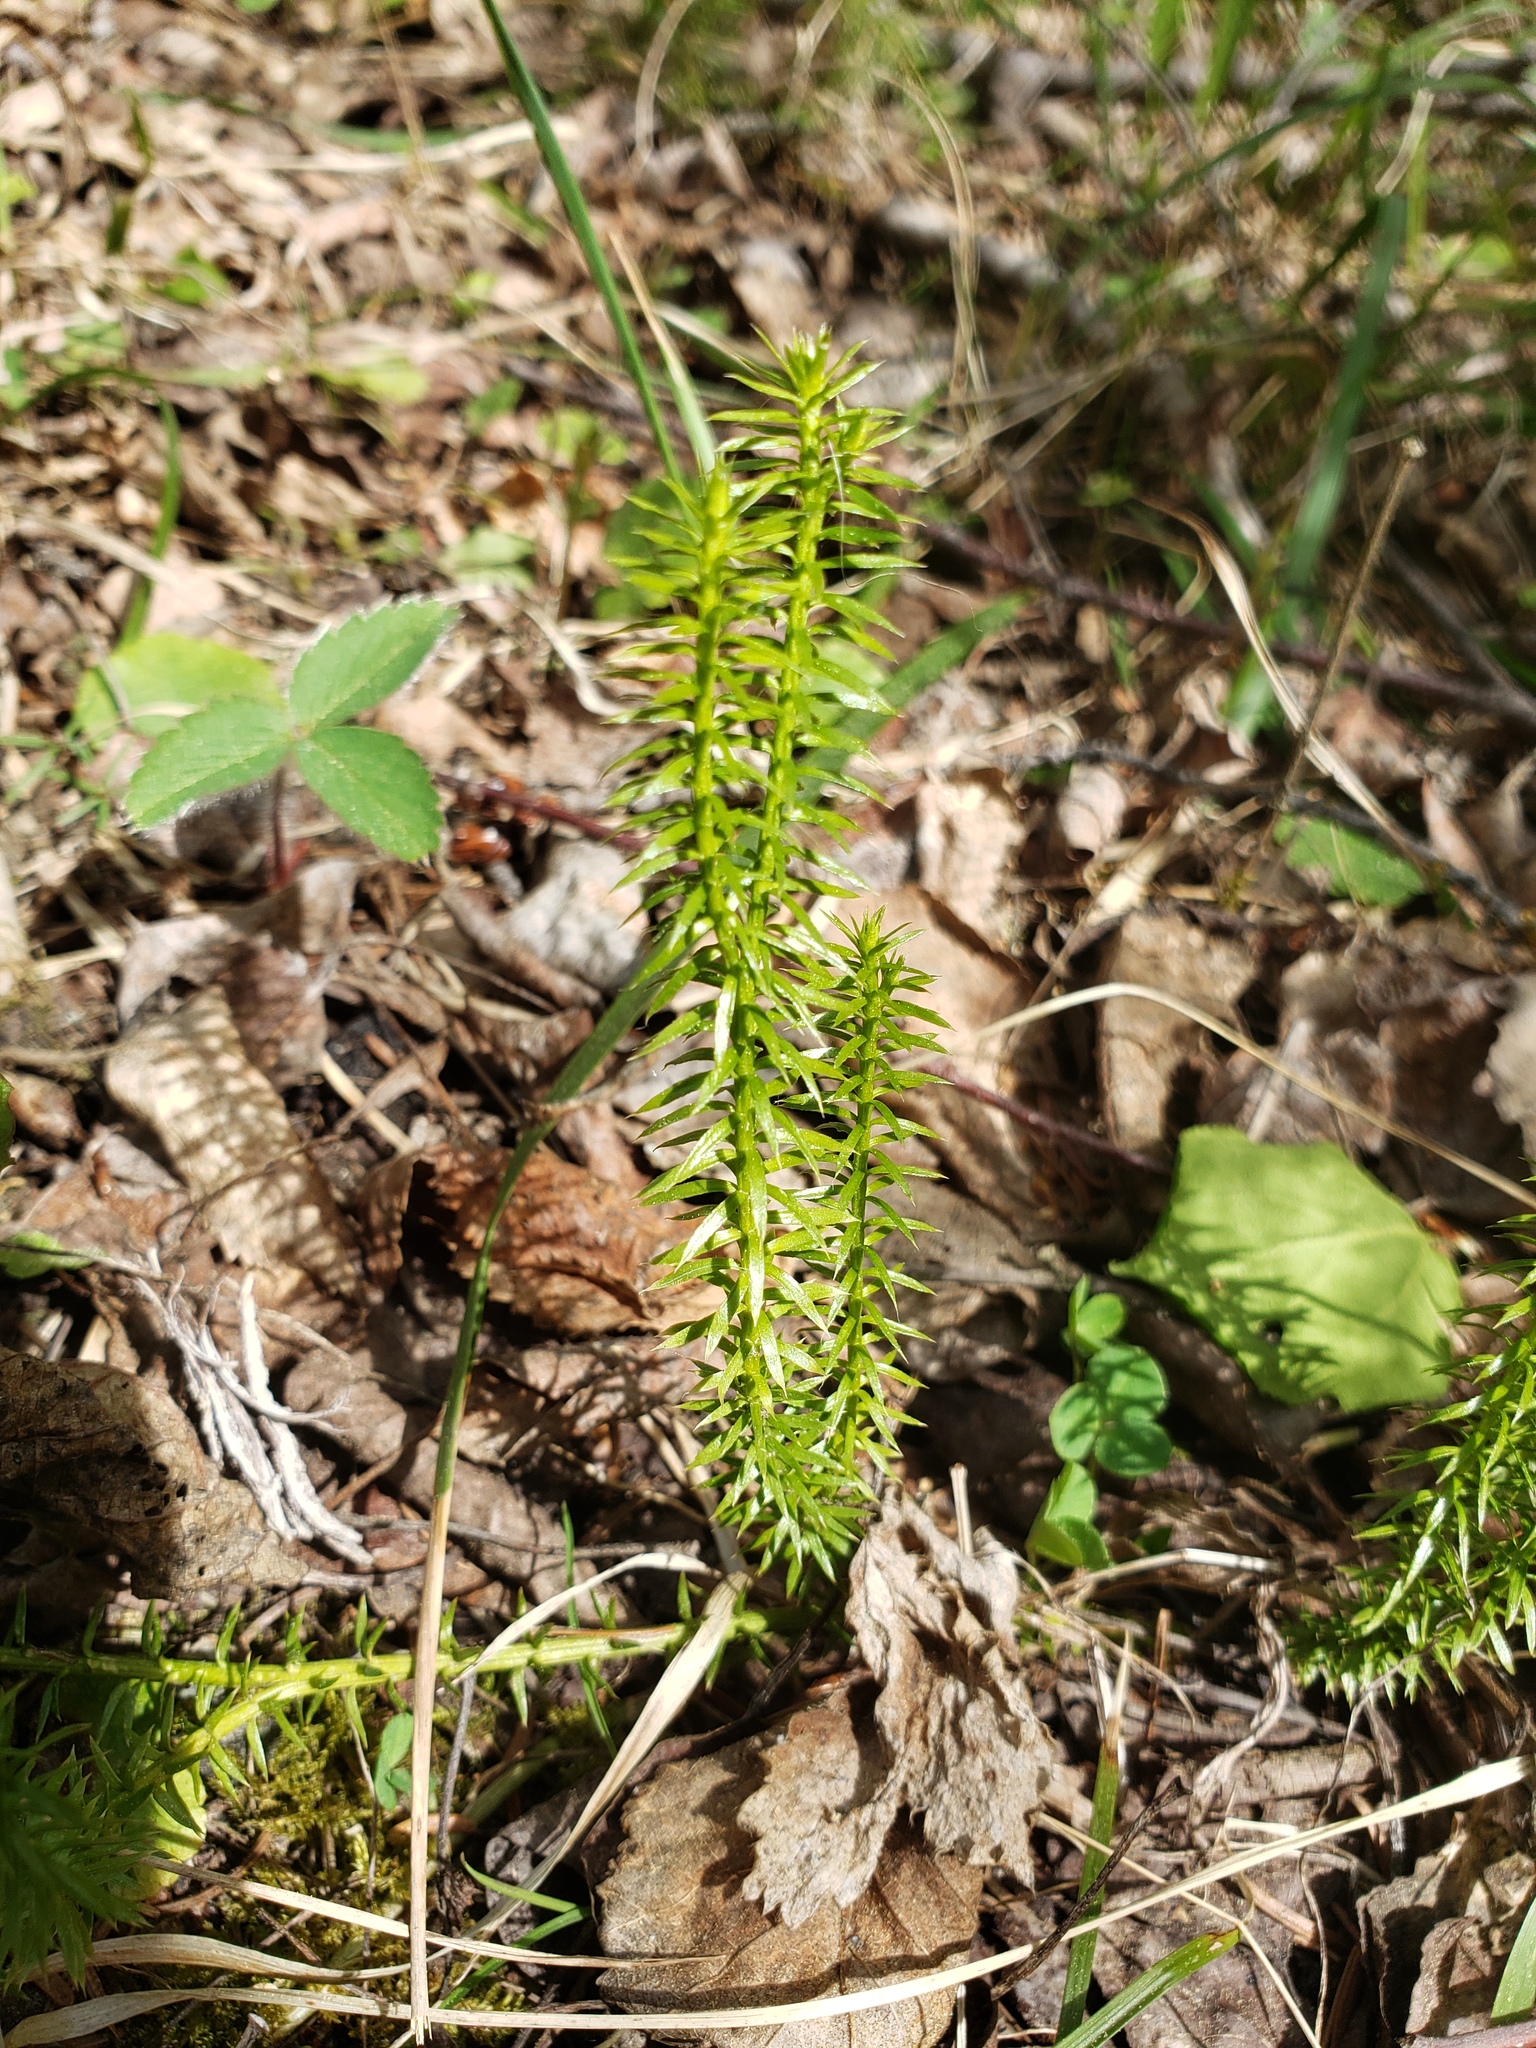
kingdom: Plantae
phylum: Tracheophyta
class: Lycopodiopsida
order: Lycopodiales
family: Lycopodiaceae
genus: Spinulum
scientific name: Spinulum annotinum
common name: Interrupted club-moss
